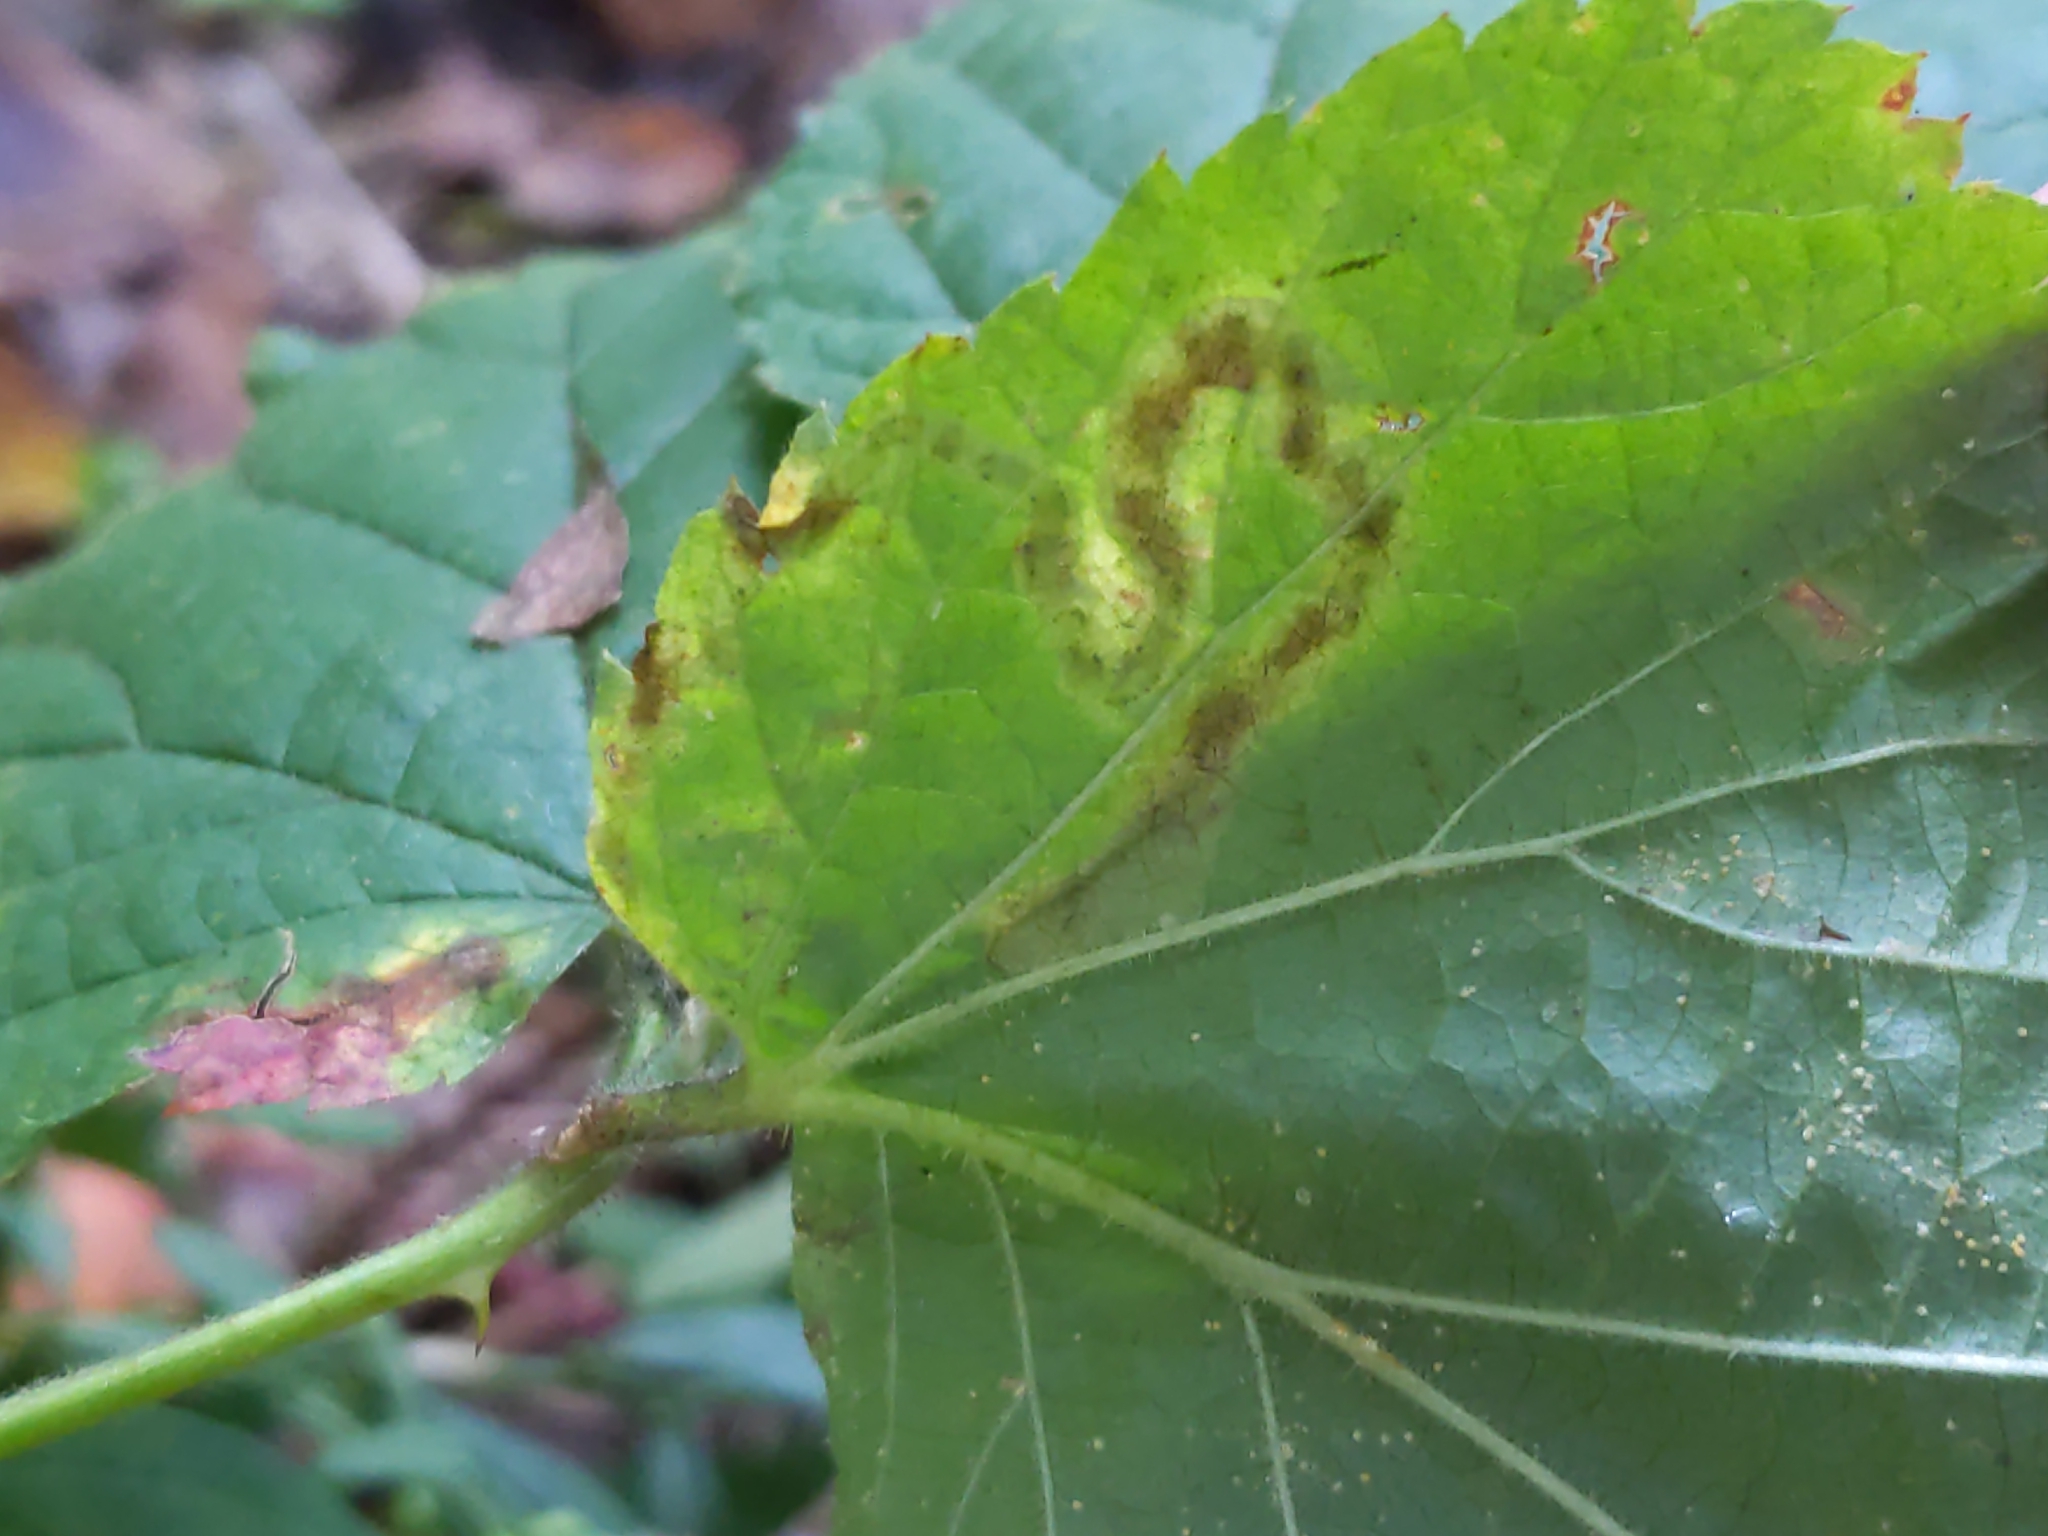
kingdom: Animalia
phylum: Arthropoda
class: Insecta
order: Diptera
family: Agromyzidae
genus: Agromyza
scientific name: Agromyza vockerothi
